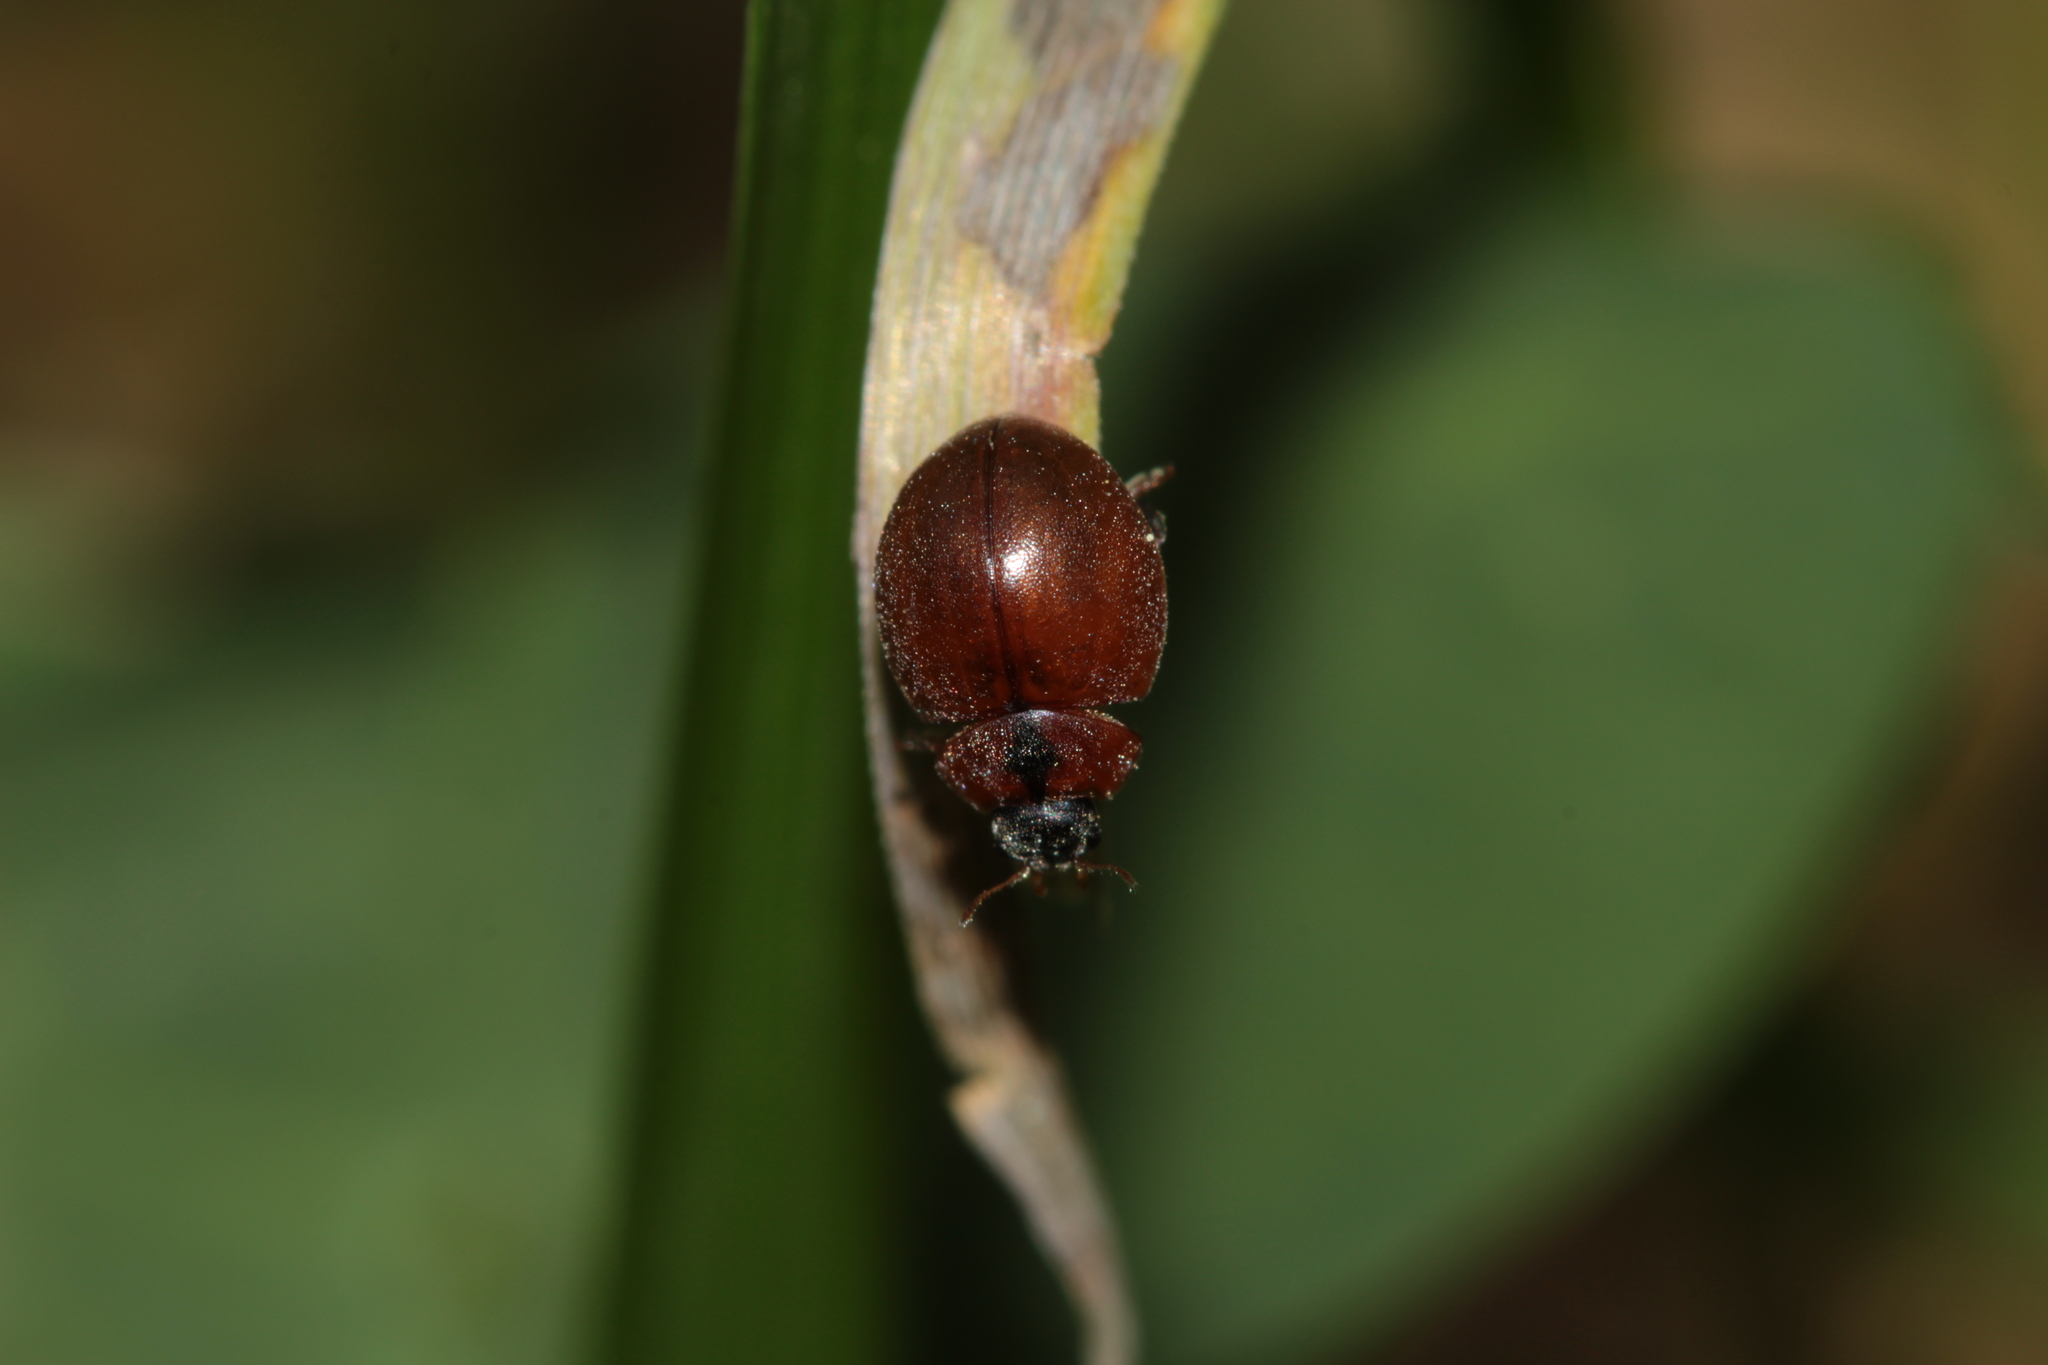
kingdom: Animalia
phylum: Arthropoda
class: Insecta
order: Coleoptera
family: Coccinellidae
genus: Cynegetis
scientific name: Cynegetis impunctata
